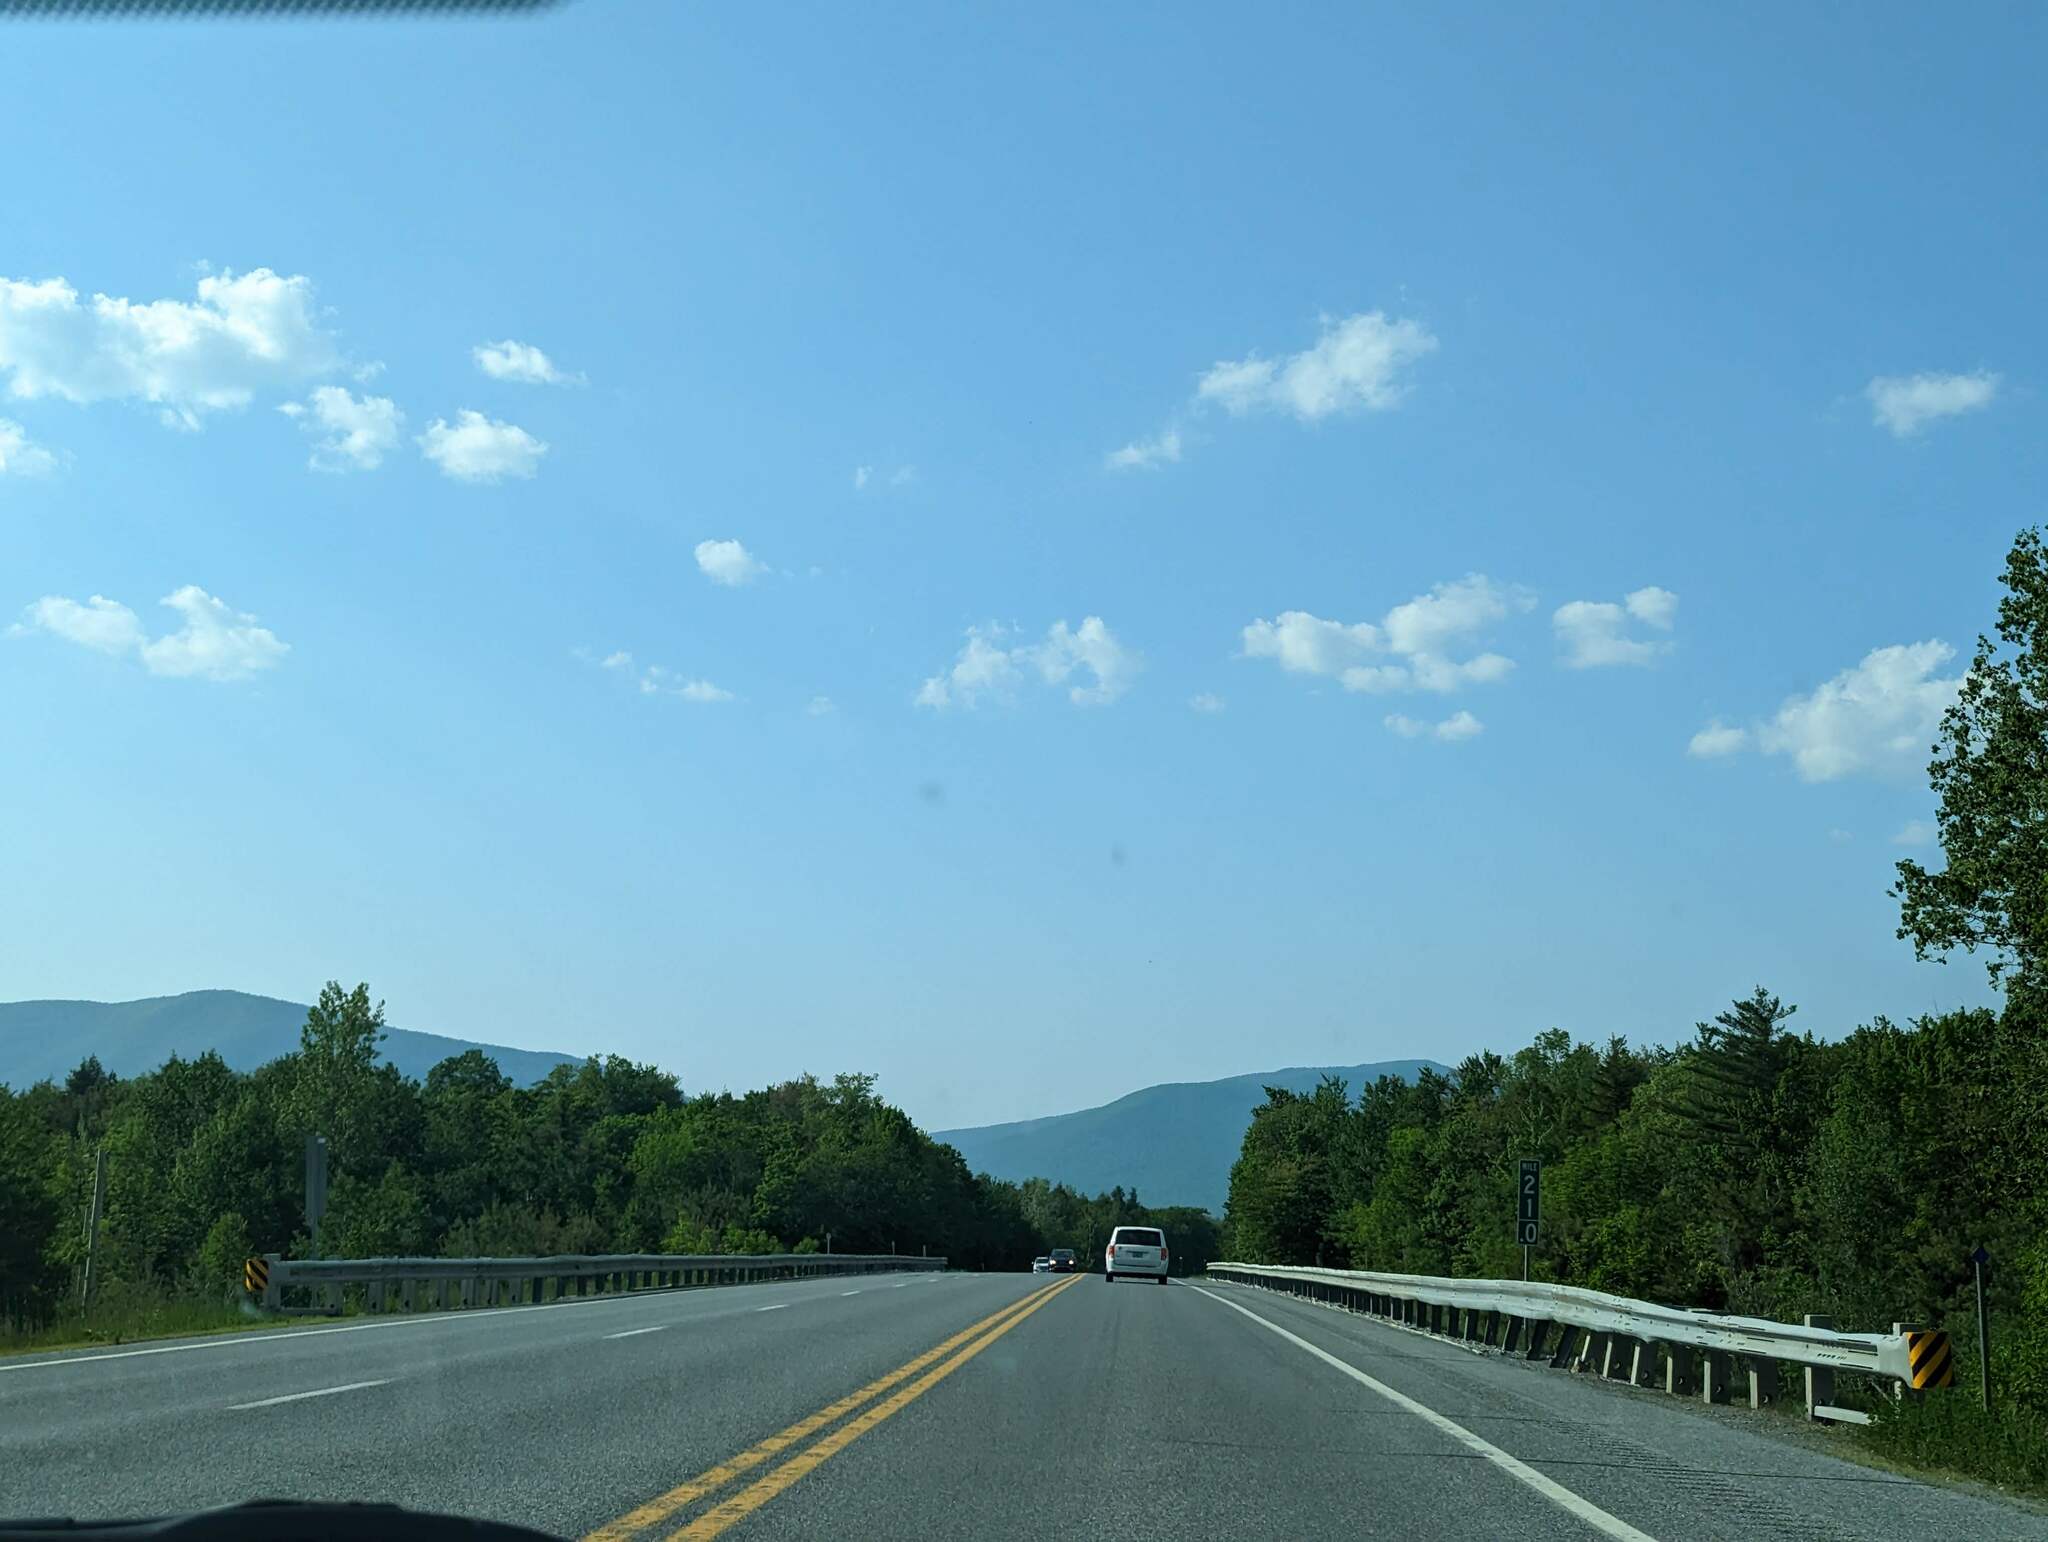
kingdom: Plantae
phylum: Tracheophyta
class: Pinopsida
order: Pinales
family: Pinaceae
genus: Pinus
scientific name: Pinus strobus
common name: Weymouth pine
